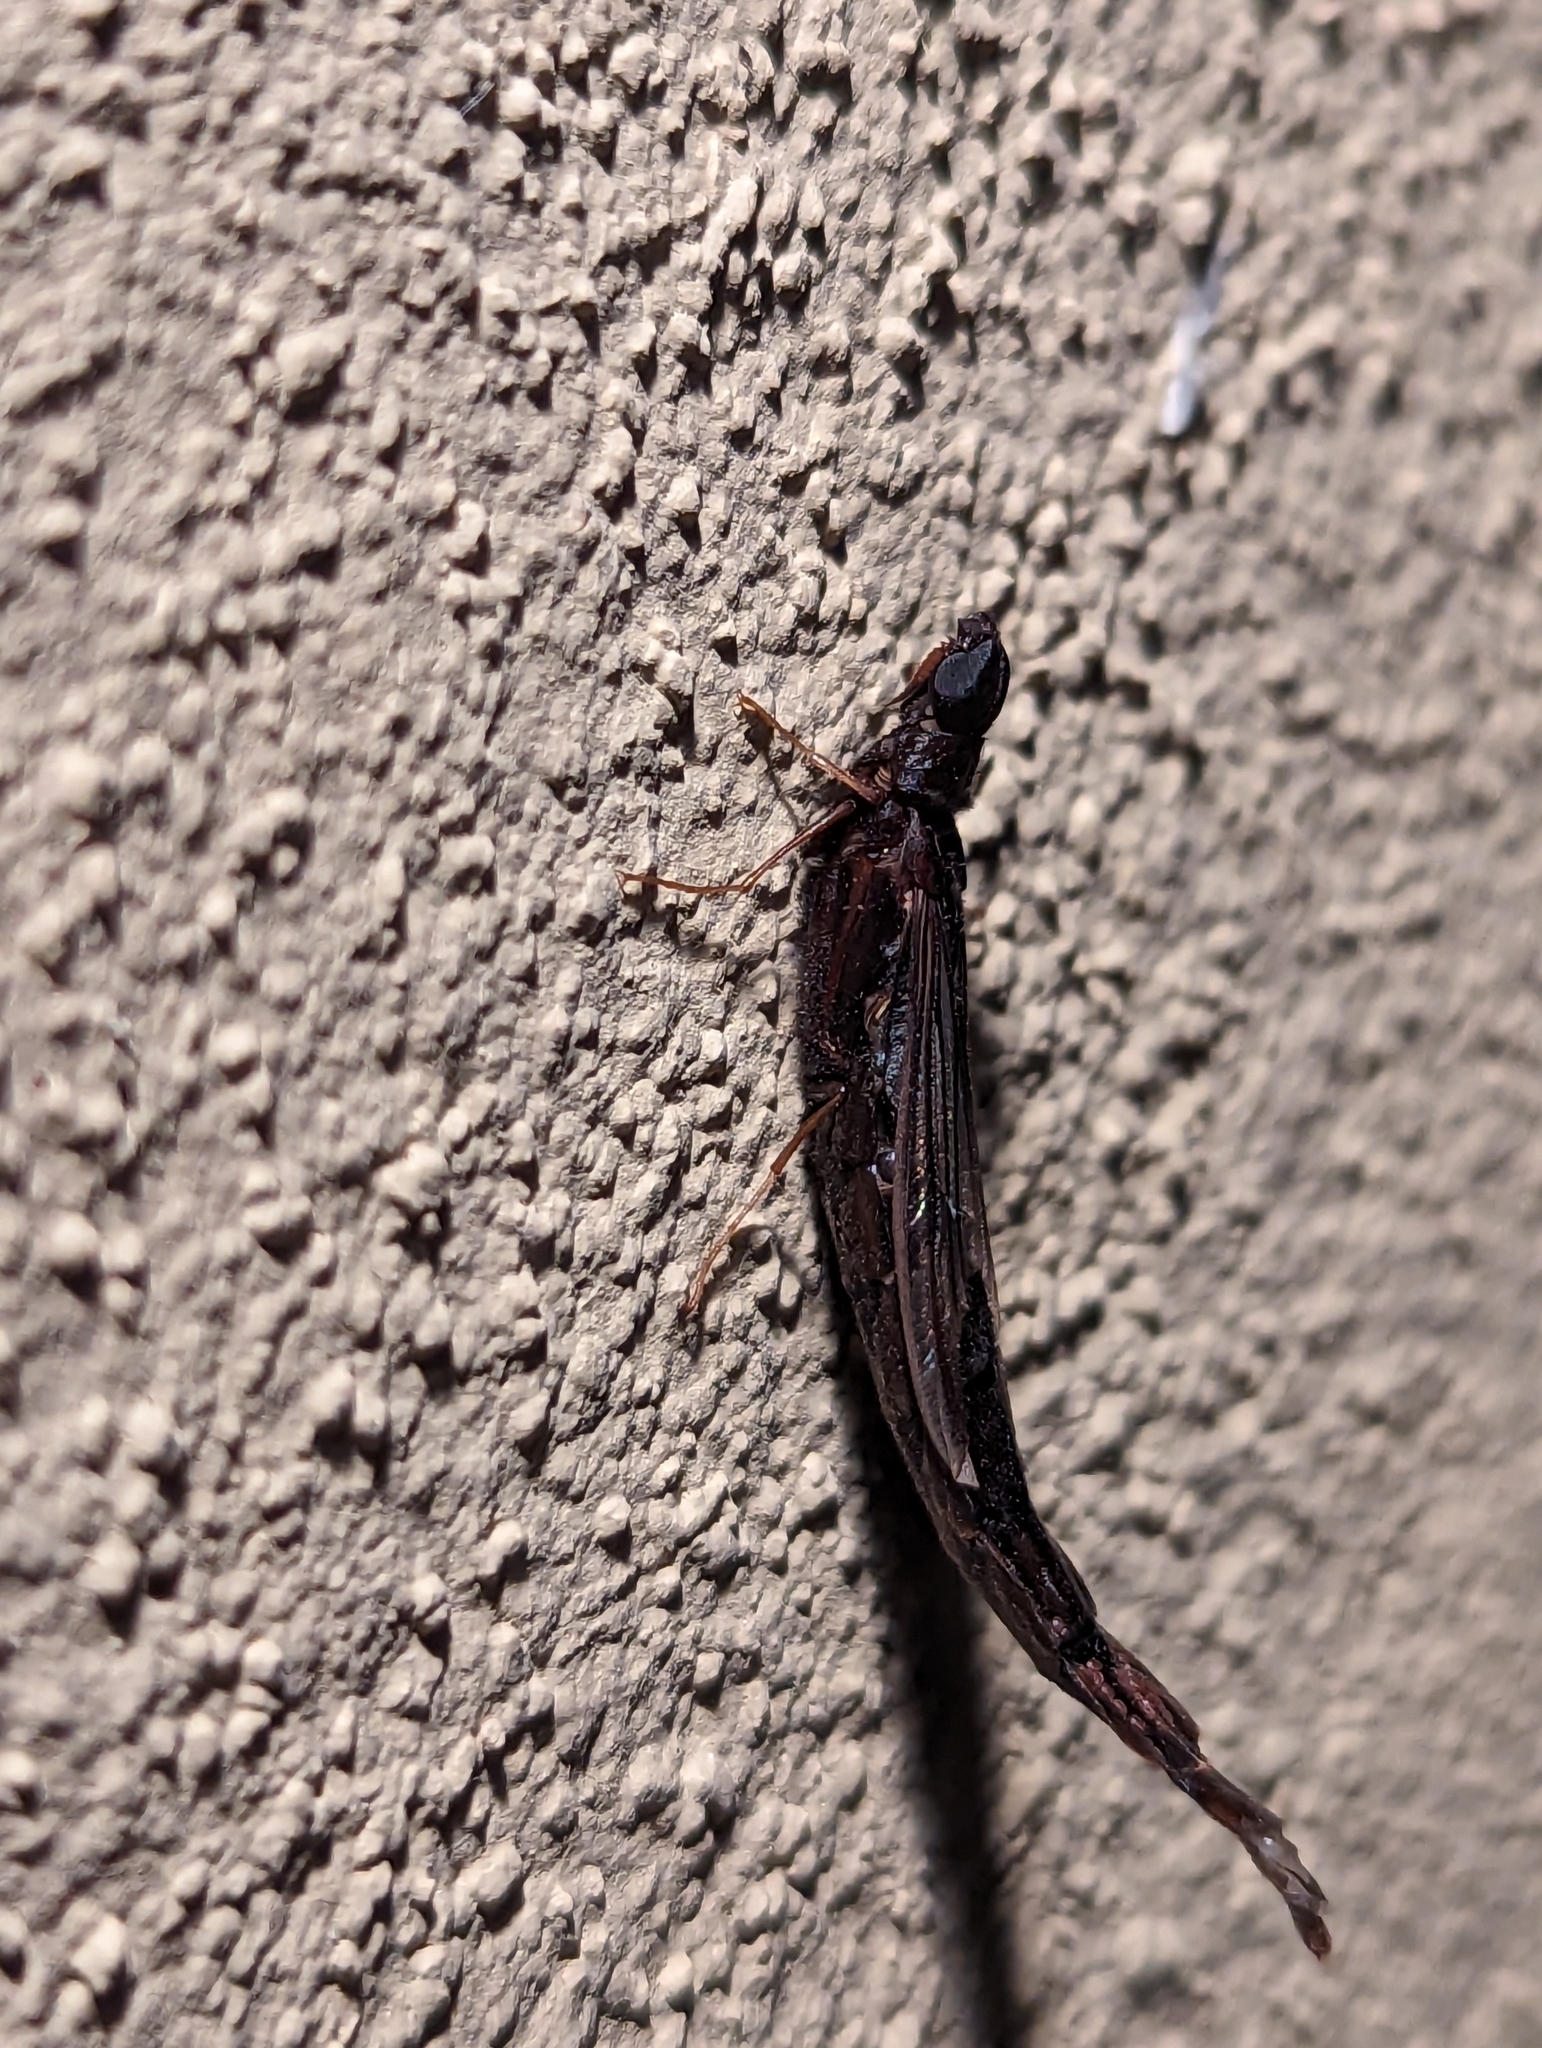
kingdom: Animalia
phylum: Arthropoda
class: Insecta
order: Coleoptera
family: Lymexylidae
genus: Atractocerus
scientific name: Atractocerus brasiliensis
